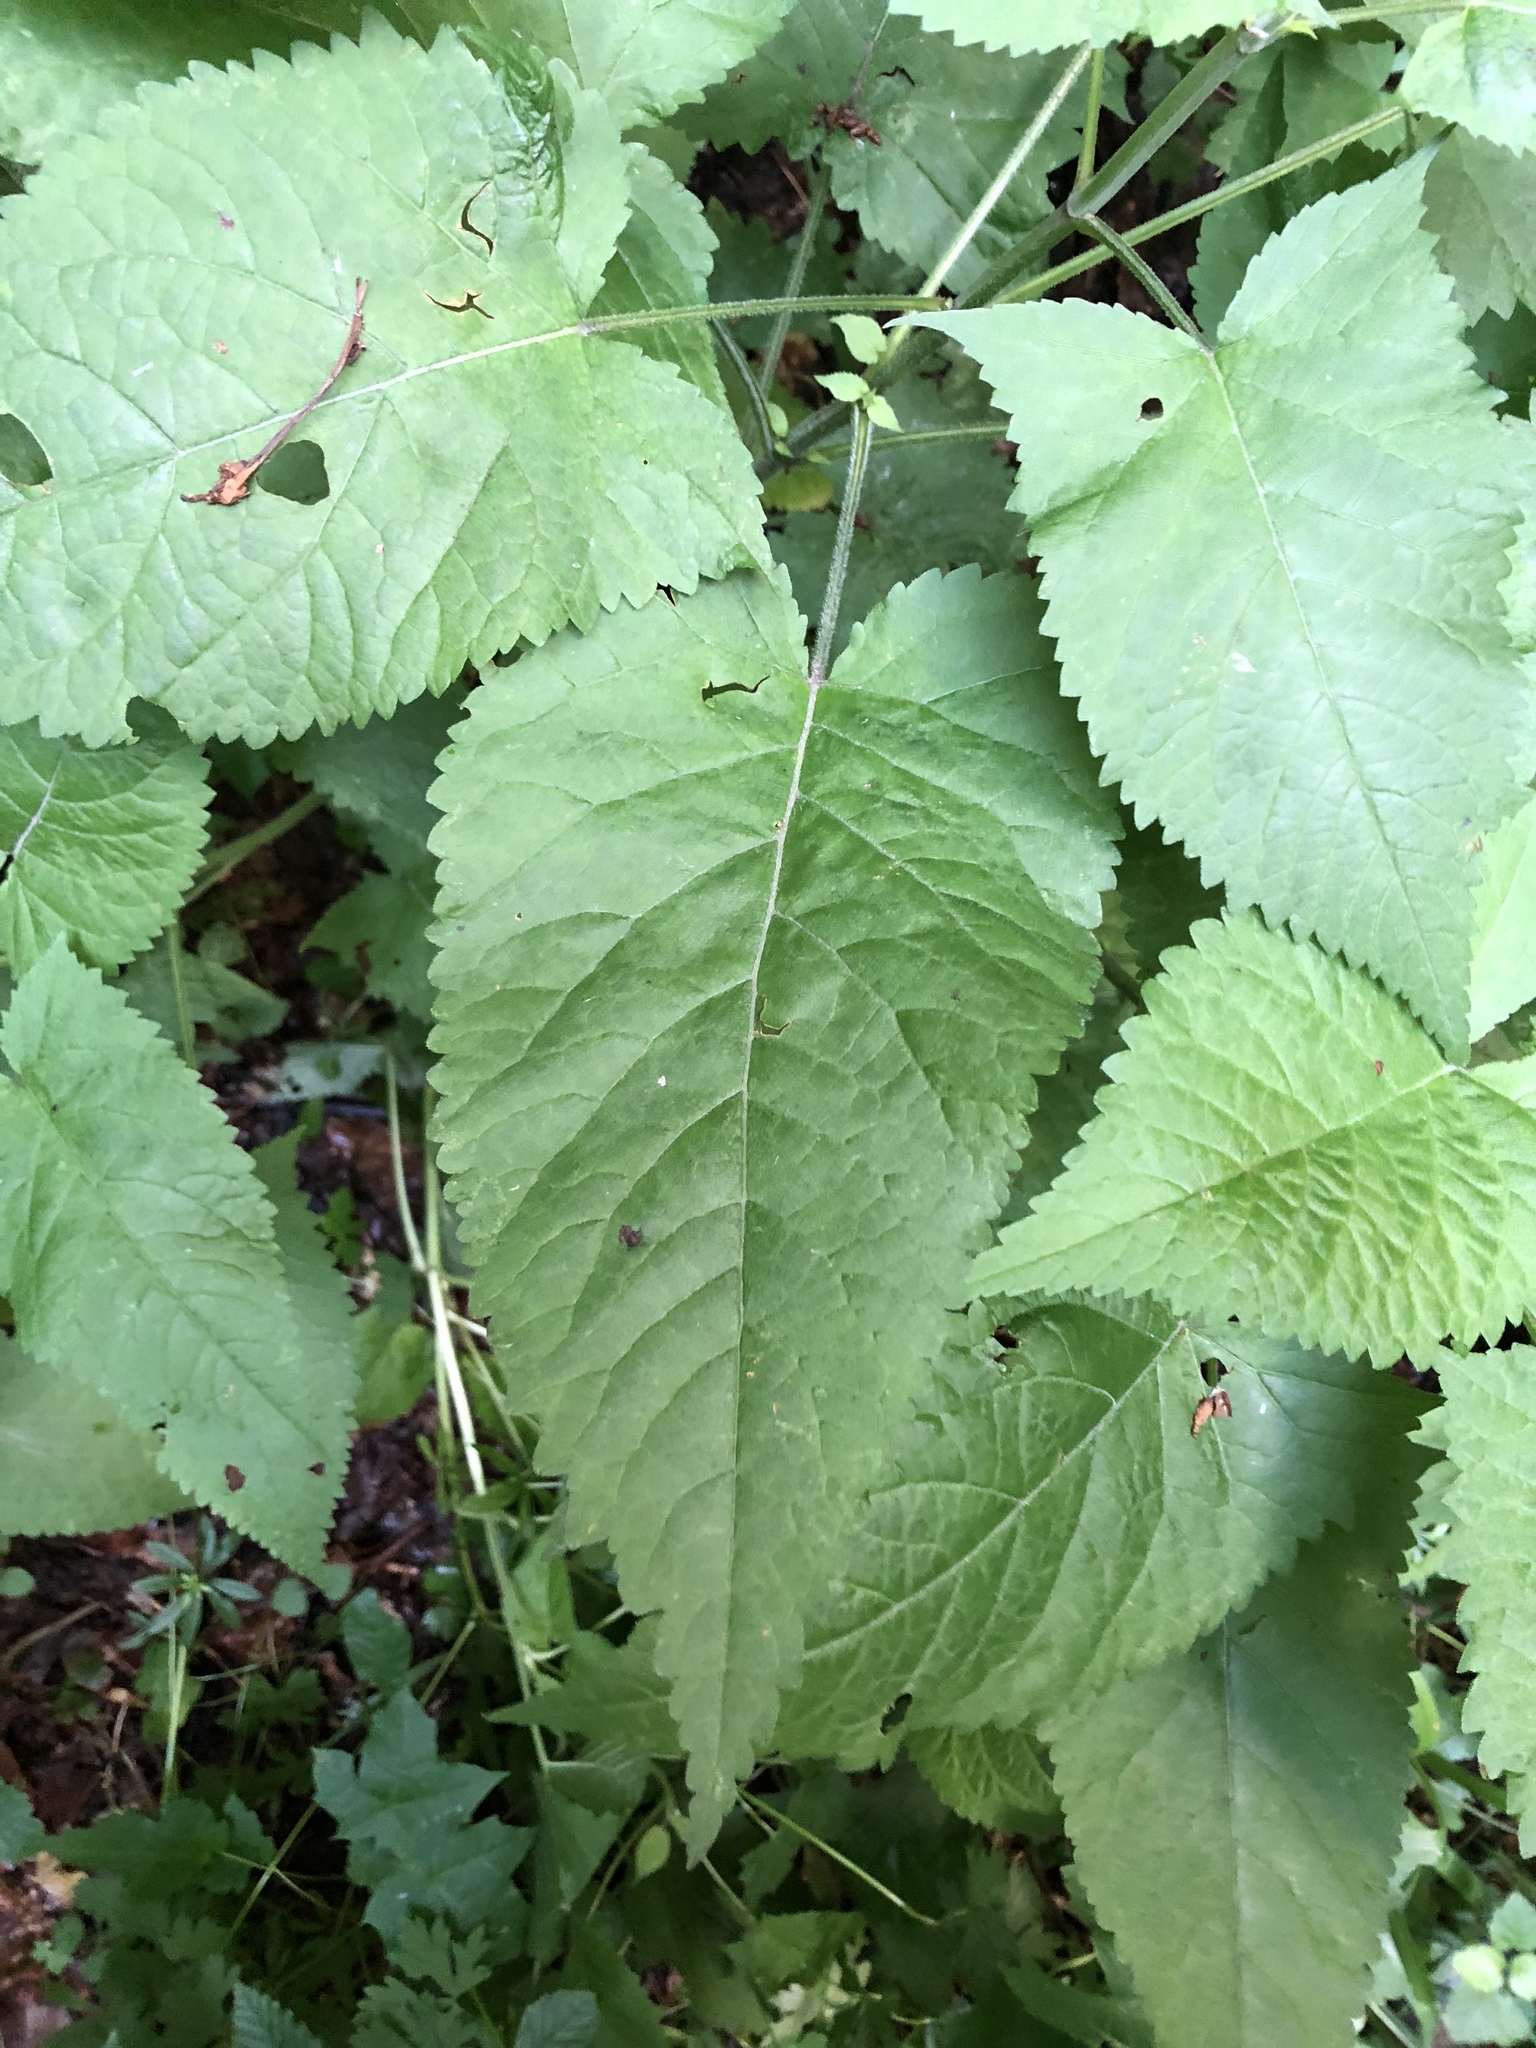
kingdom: Plantae
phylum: Tracheophyta
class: Magnoliopsida
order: Lamiales
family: Lamiaceae
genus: Salvia
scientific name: Salvia glutinosa
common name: Sticky clary
